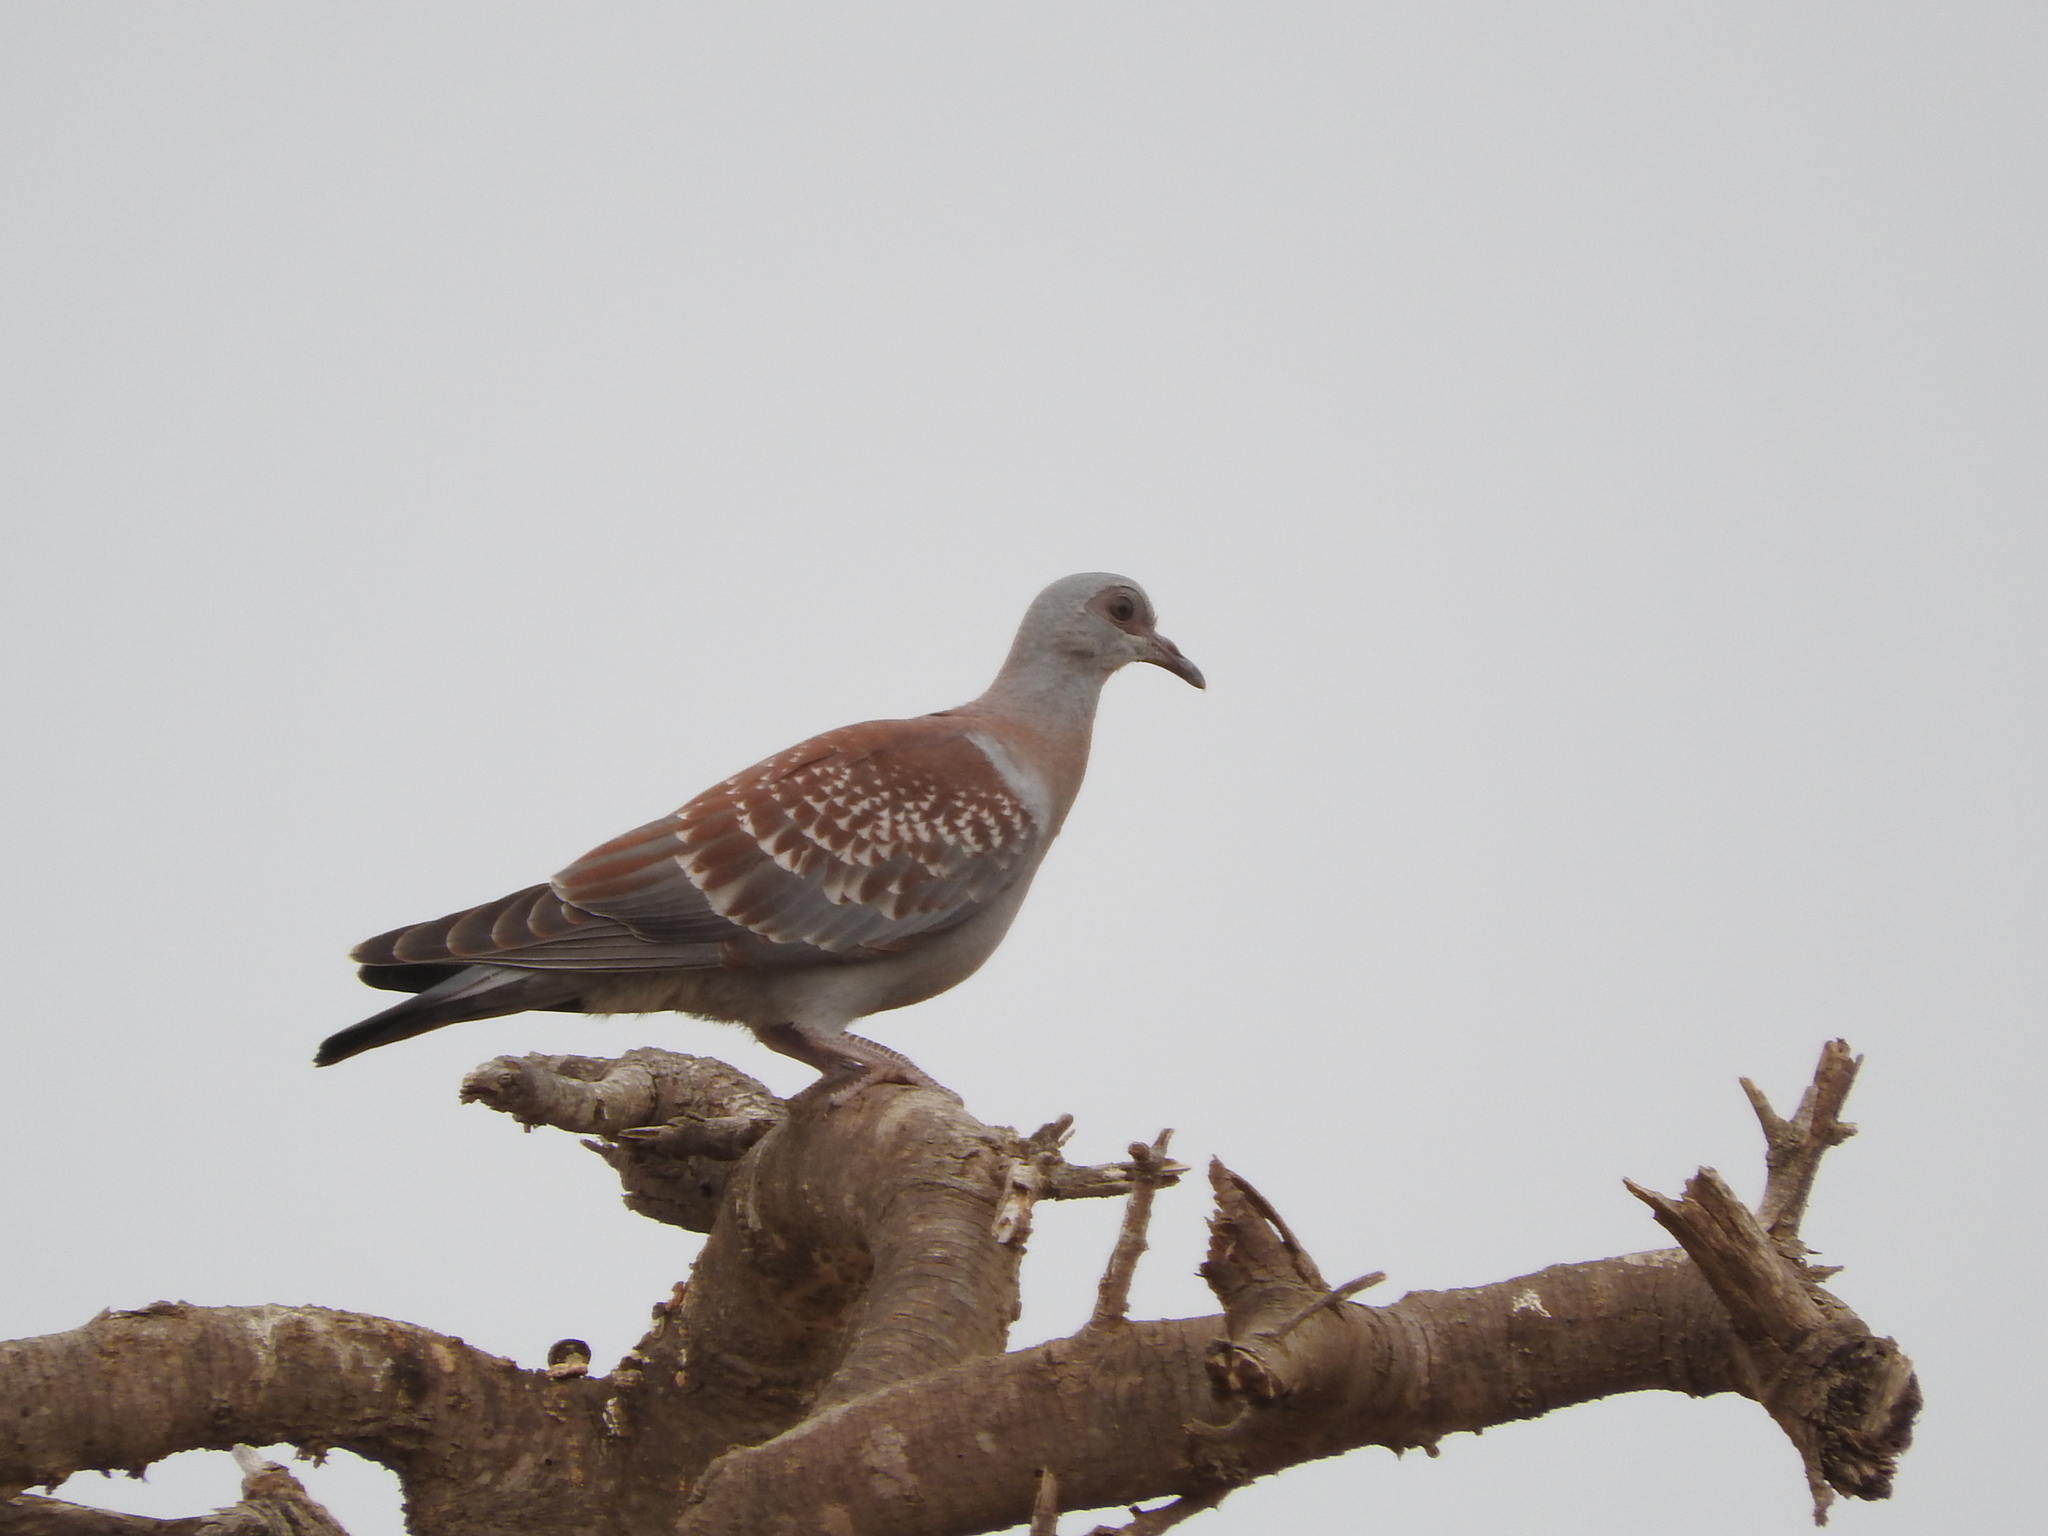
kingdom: Animalia
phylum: Chordata
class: Aves
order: Columbiformes
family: Columbidae
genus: Columba
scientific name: Columba guinea
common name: Speckled pigeon
